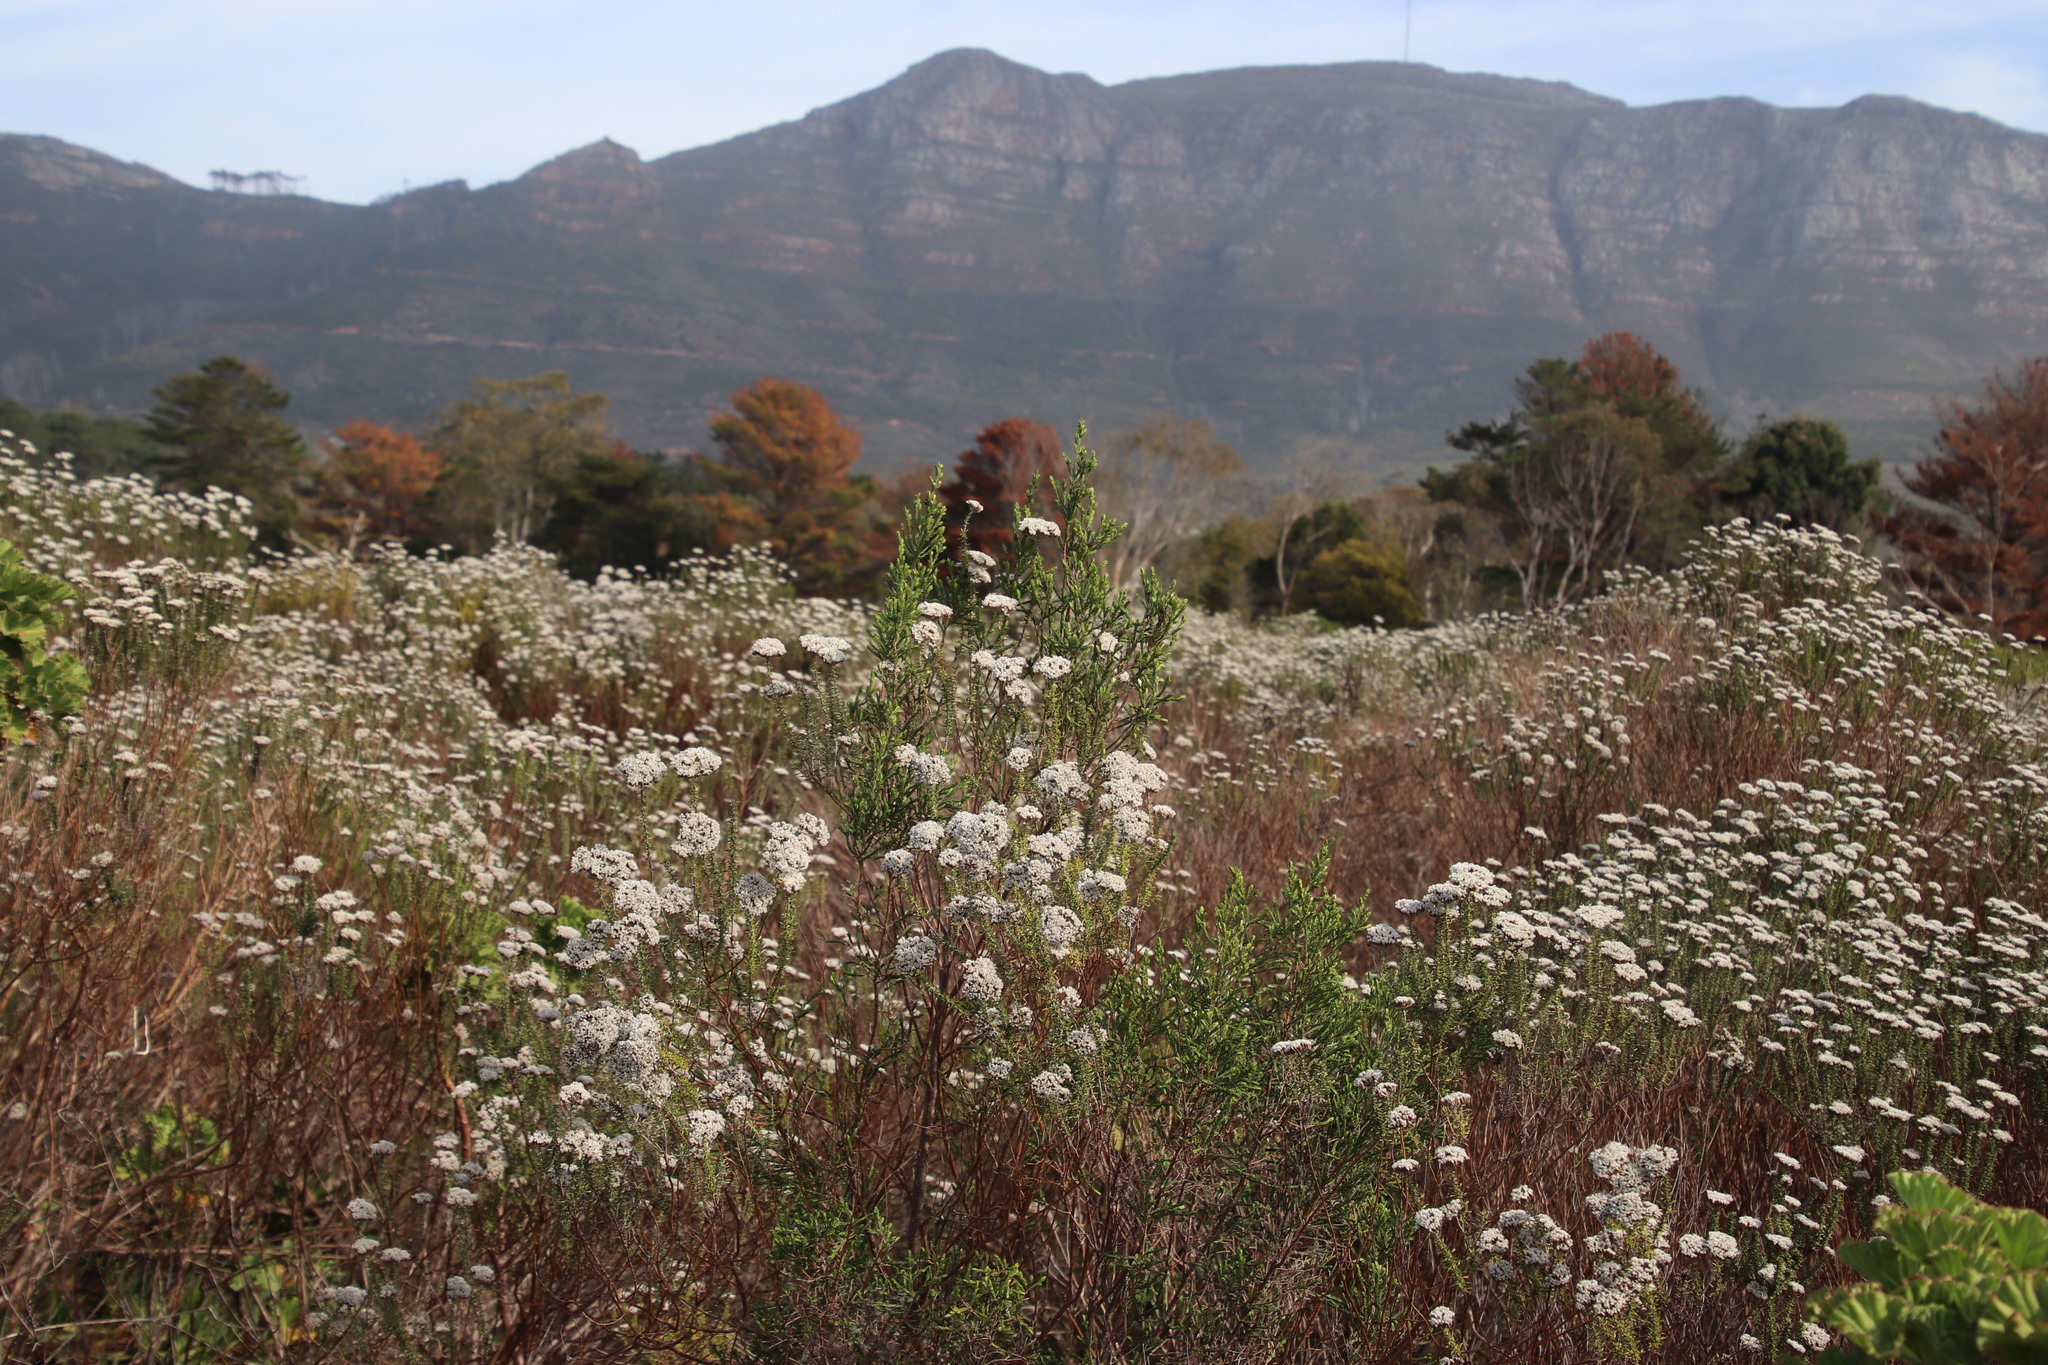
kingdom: Plantae
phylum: Tracheophyta
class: Magnoliopsida
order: Malvales
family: Thymelaeaceae
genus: Passerina
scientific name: Passerina corymbosa
